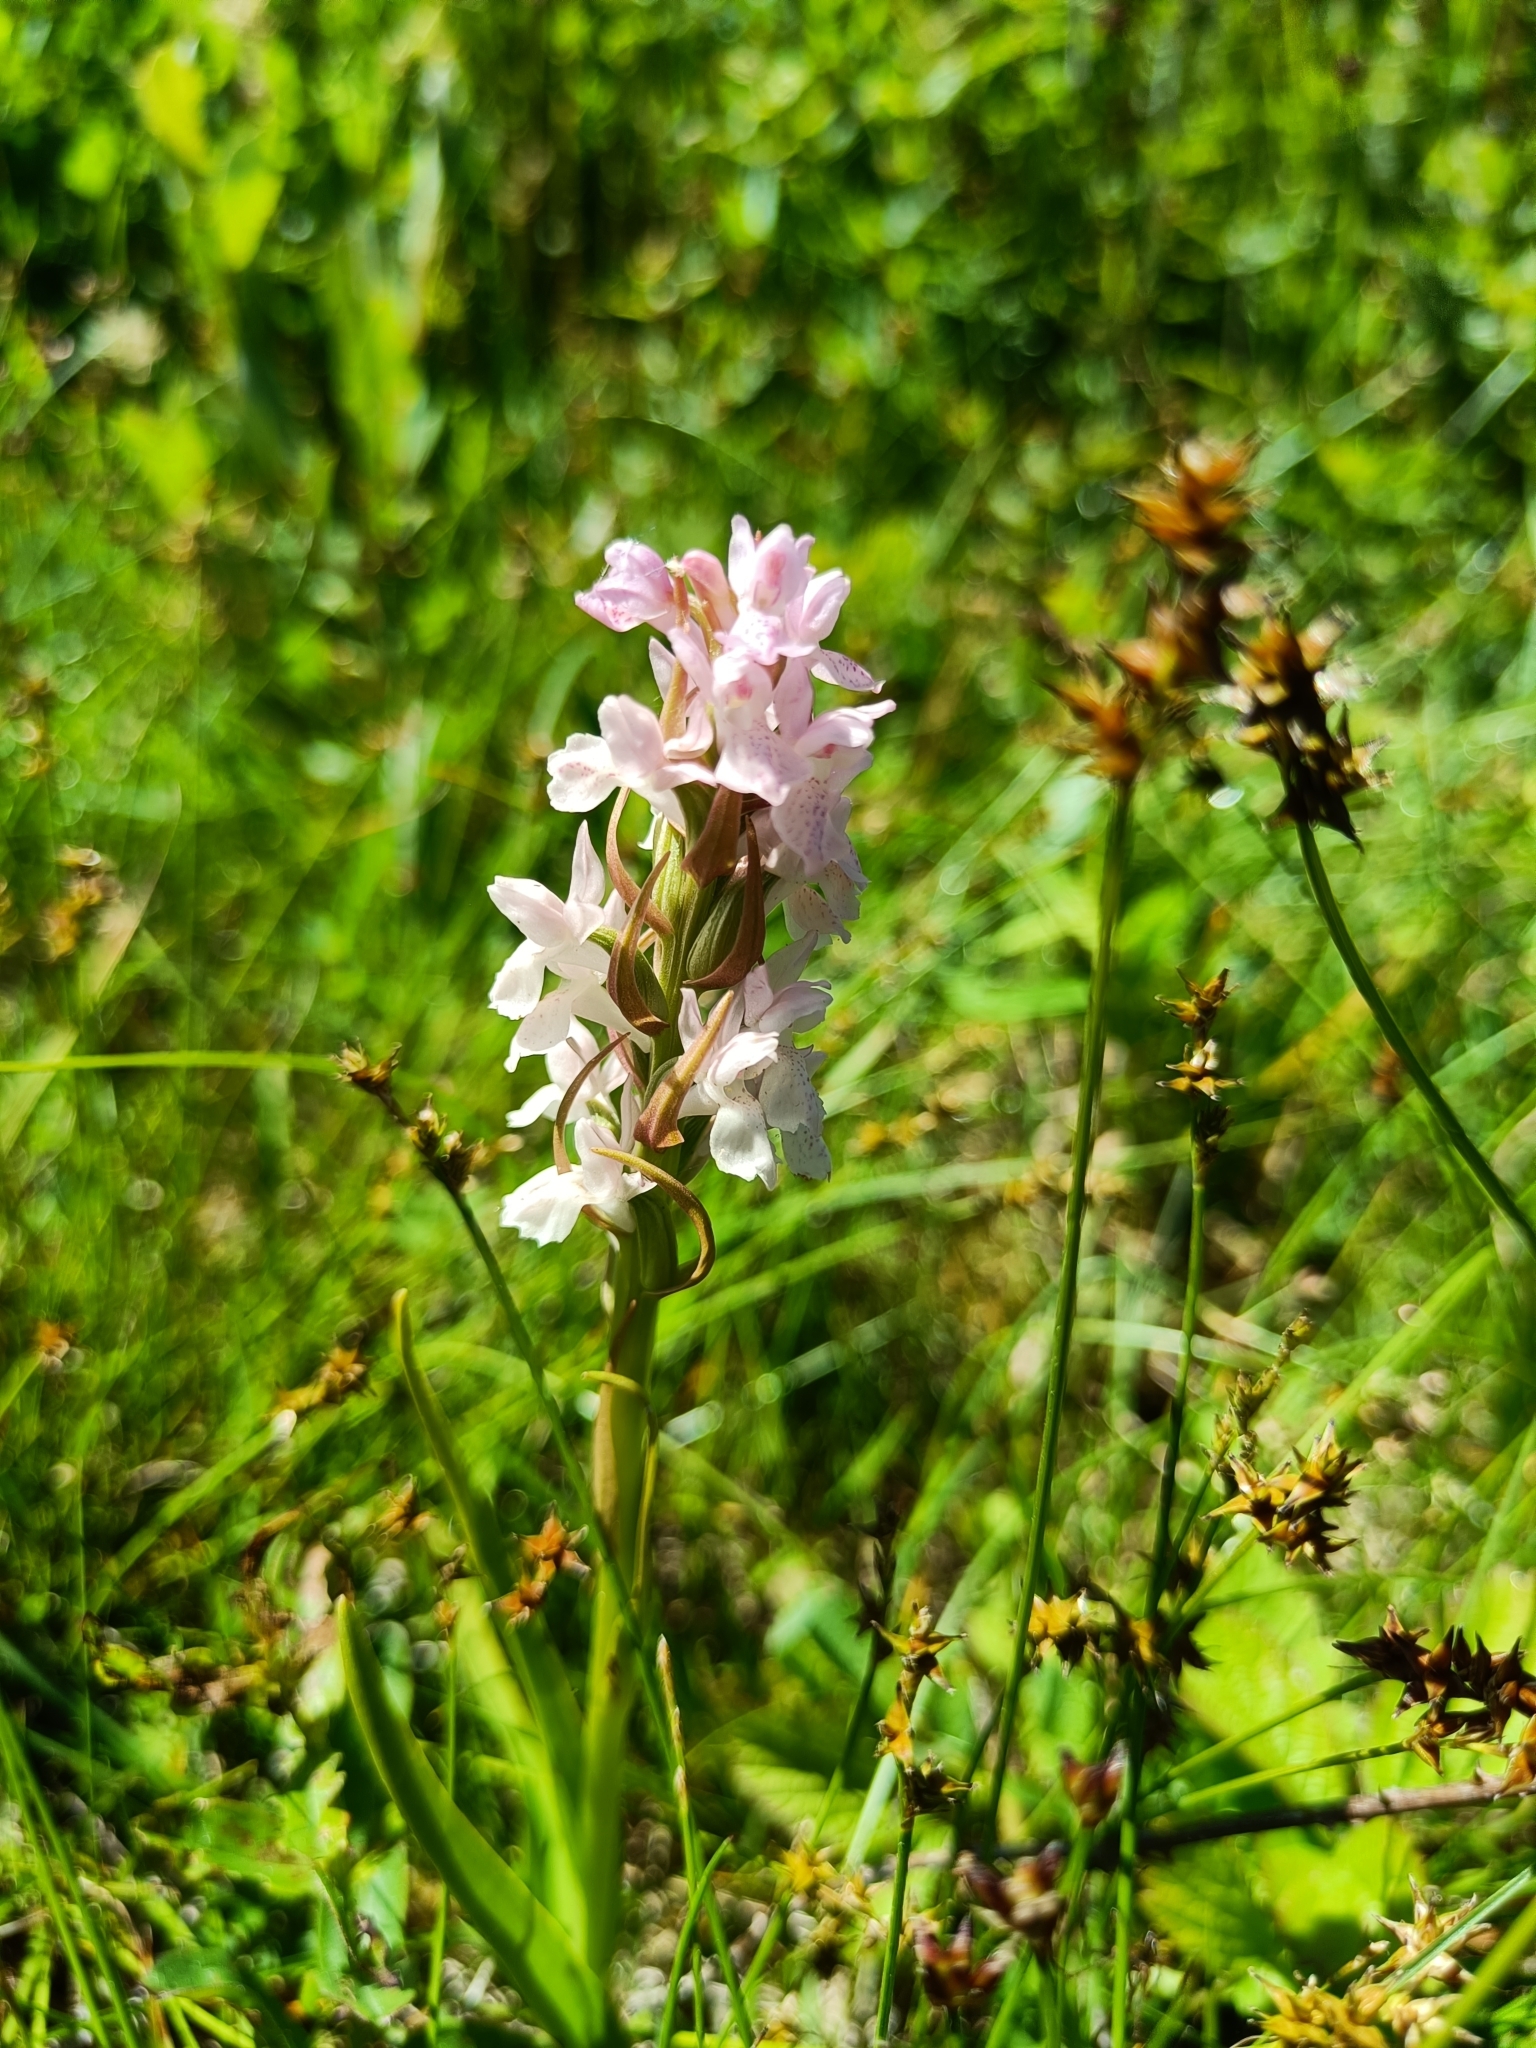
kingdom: Plantae
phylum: Tracheophyta
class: Liliopsida
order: Asparagales
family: Orchidaceae
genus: Dactylorhiza
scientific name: Dactylorhiza incarnata
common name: Early marsh-orchid
